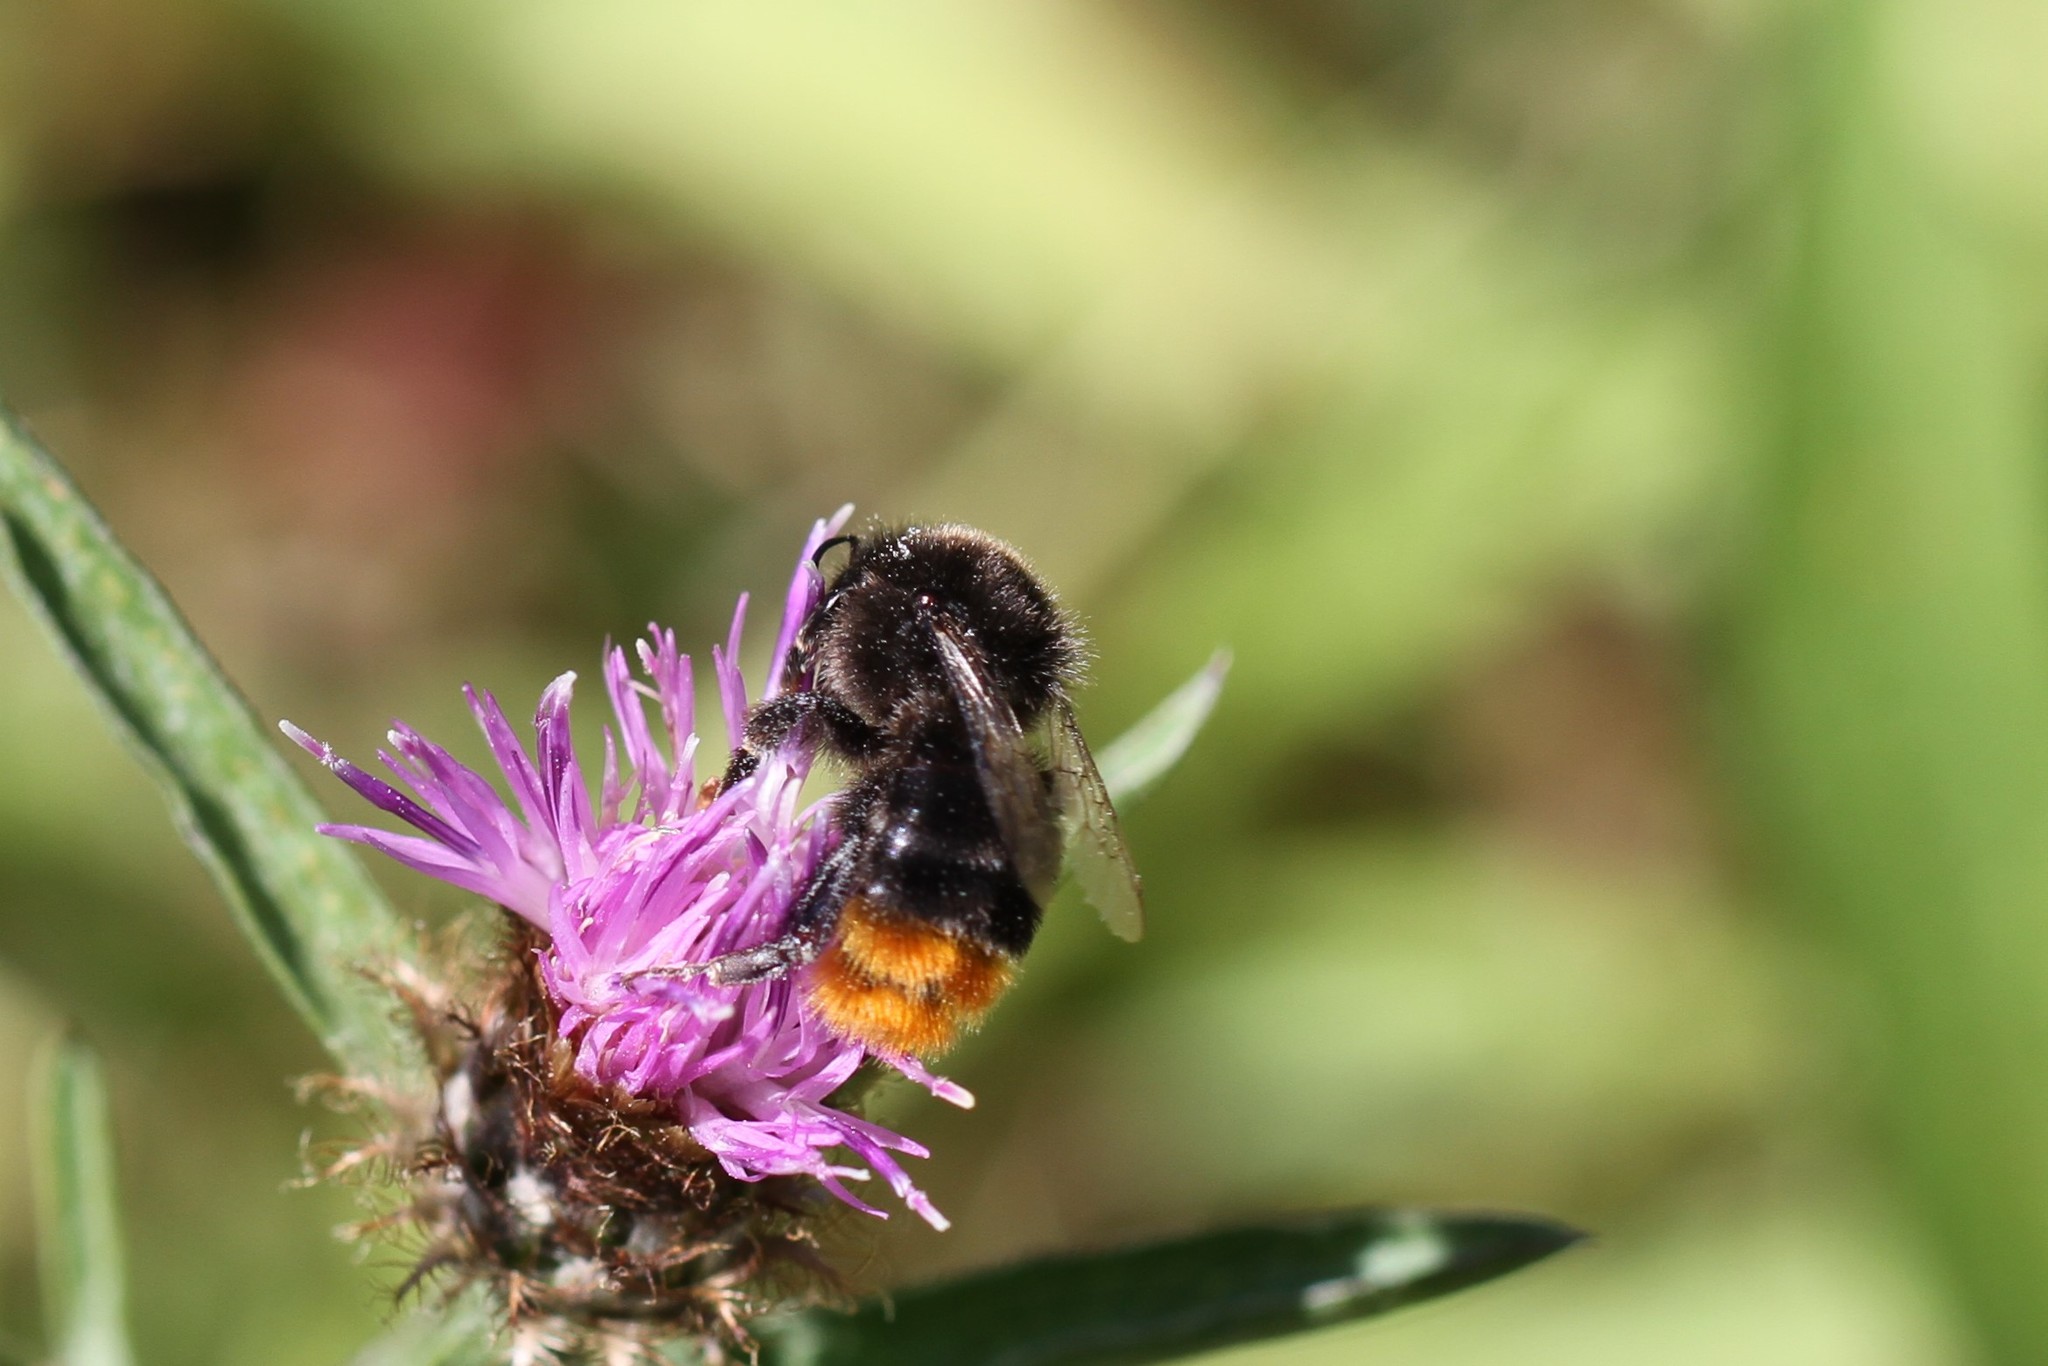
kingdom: Animalia
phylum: Arthropoda
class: Insecta
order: Hymenoptera
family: Apidae
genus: Bombus
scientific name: Bombus lapidarius
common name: Large red-tailed humble-bee
